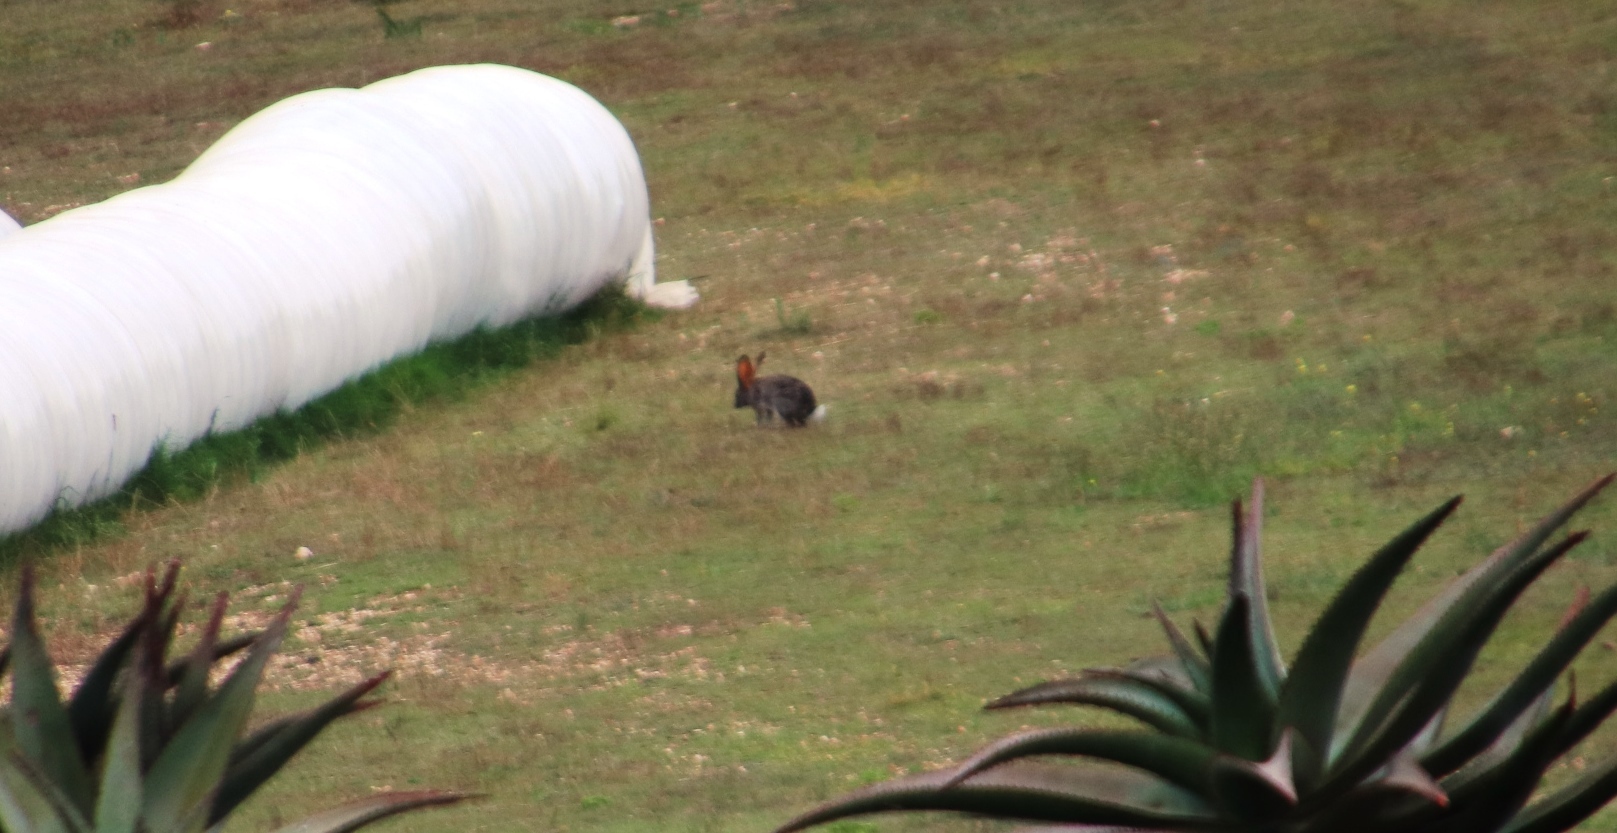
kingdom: Animalia
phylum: Chordata
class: Mammalia
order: Lagomorpha
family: Leporidae
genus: Lepus
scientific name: Lepus saxatilis
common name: Scrub hare
